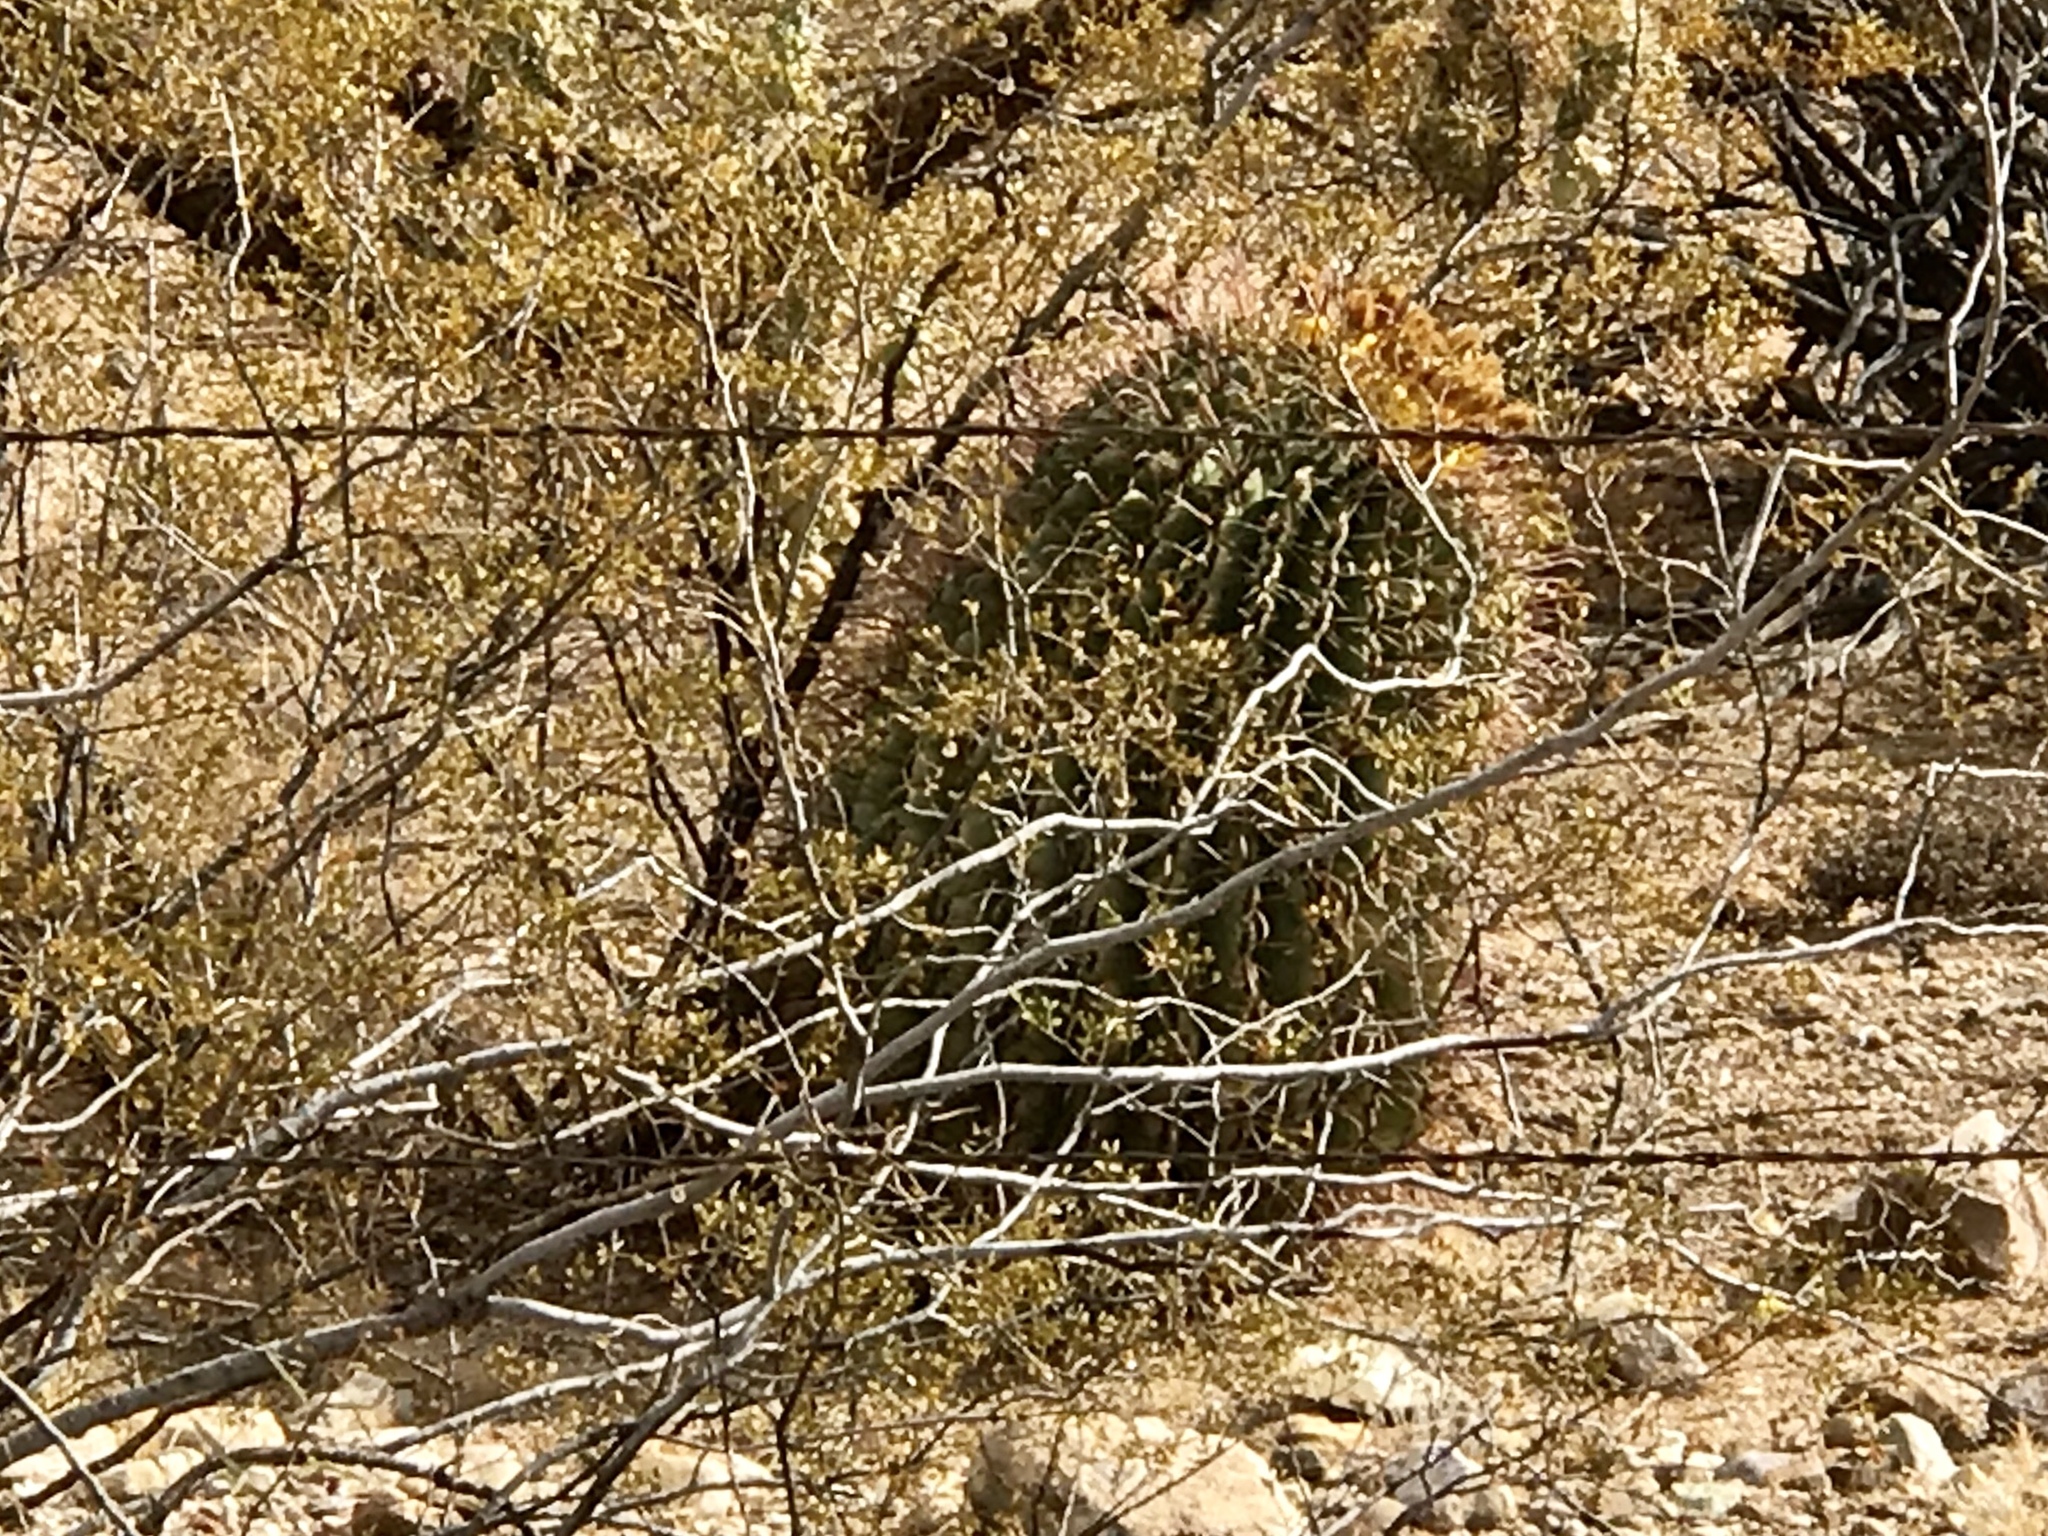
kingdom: Plantae
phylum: Tracheophyta
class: Magnoliopsida
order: Caryophyllales
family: Cactaceae
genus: Ferocactus
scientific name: Ferocactus wislizeni
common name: Candy barrel cactus
